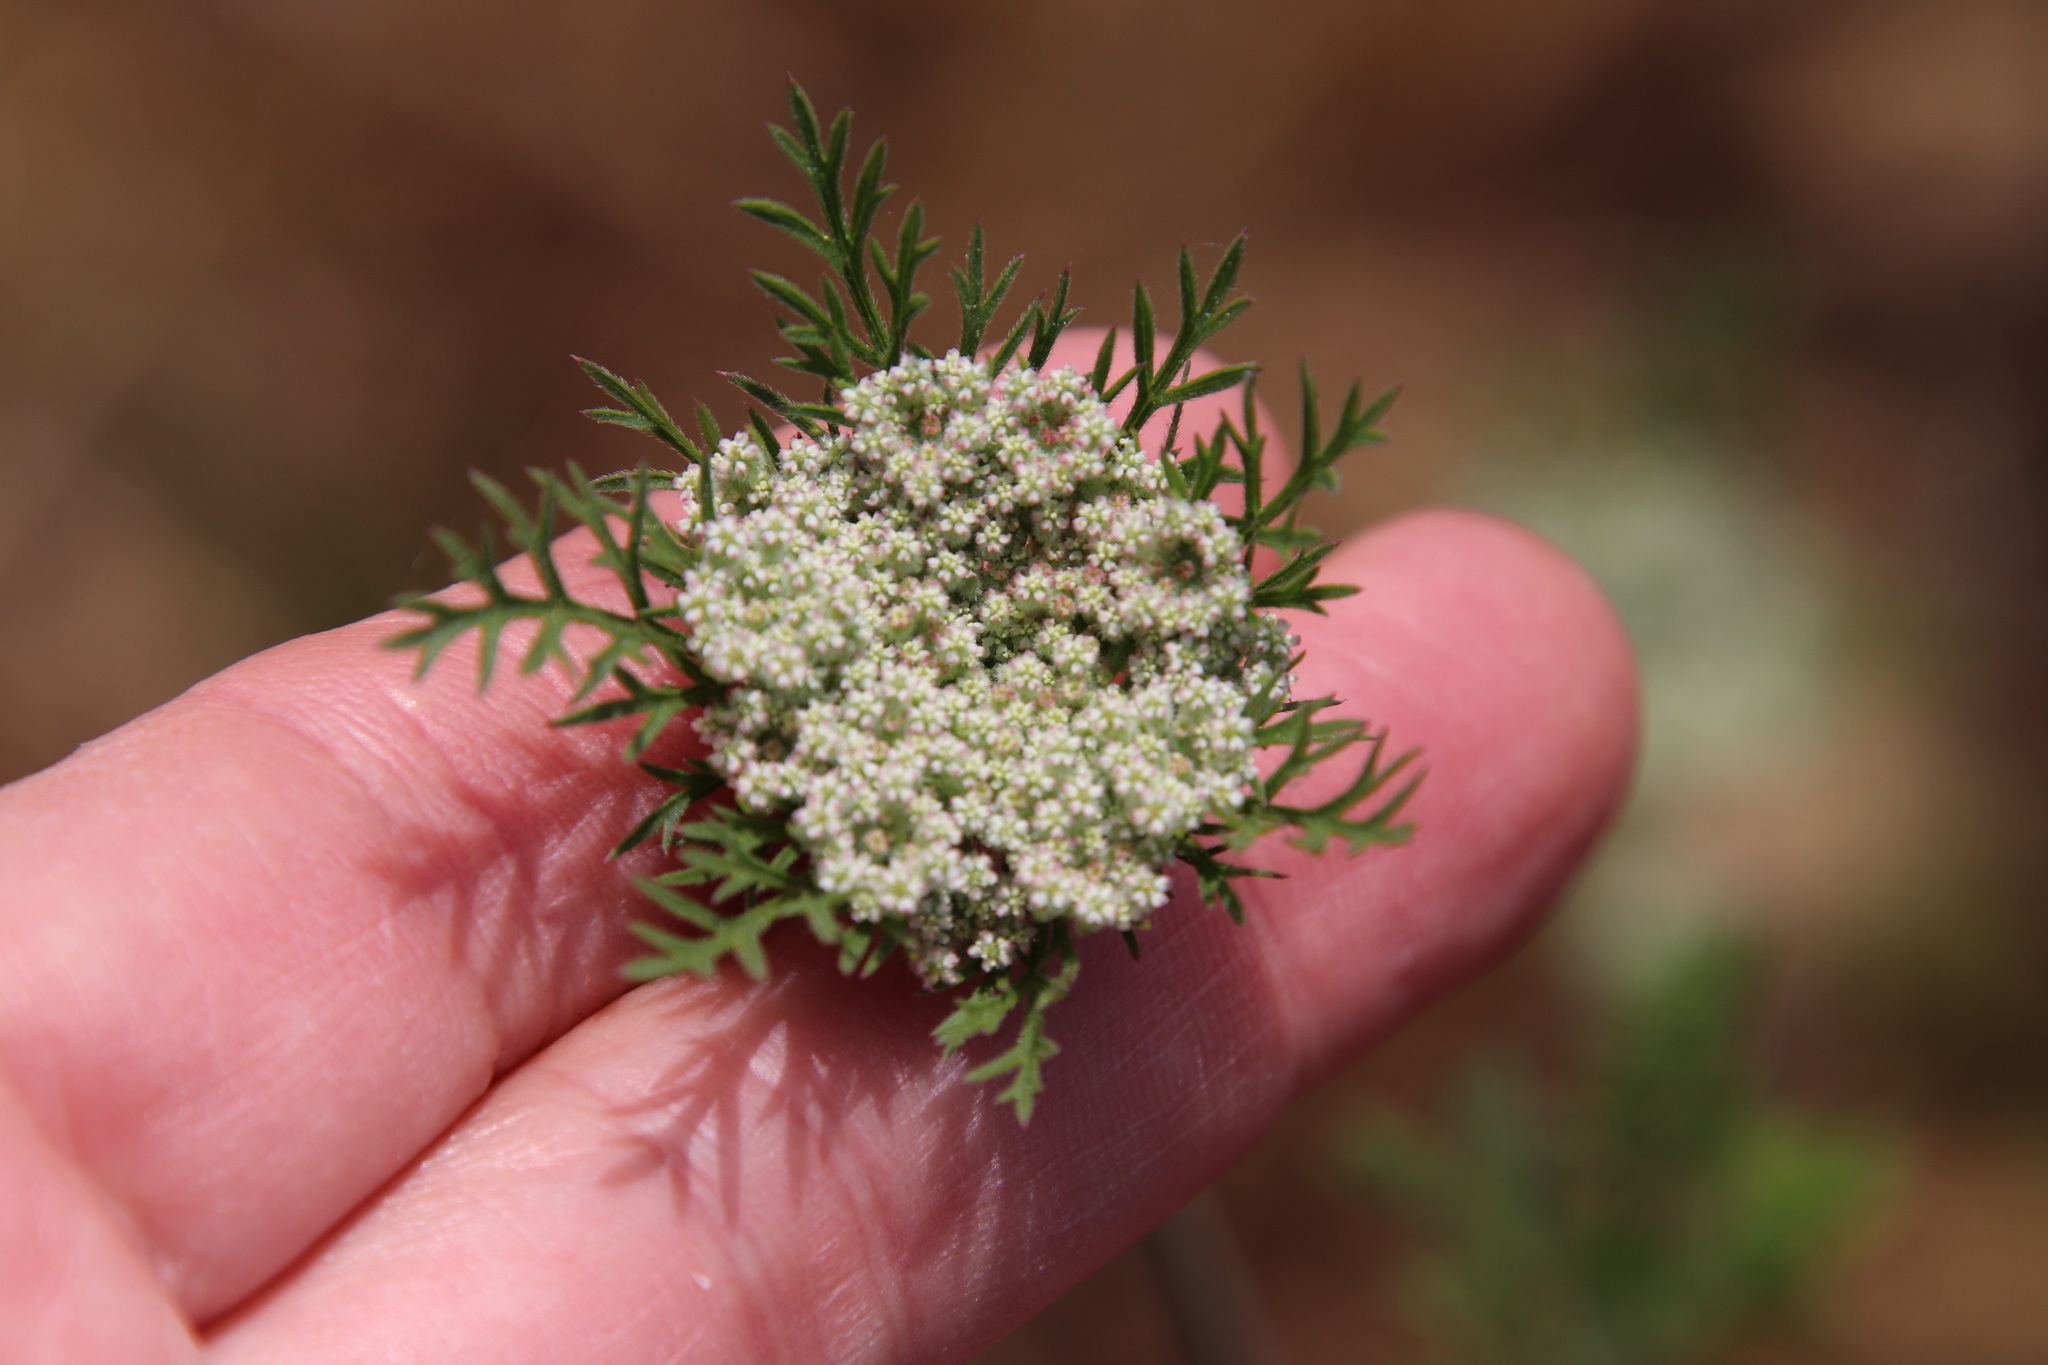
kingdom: Plantae
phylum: Tracheophyta
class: Magnoliopsida
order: Apiales
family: Apiaceae
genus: Daucus
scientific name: Daucus pusillus
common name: Southwest wild carrot
